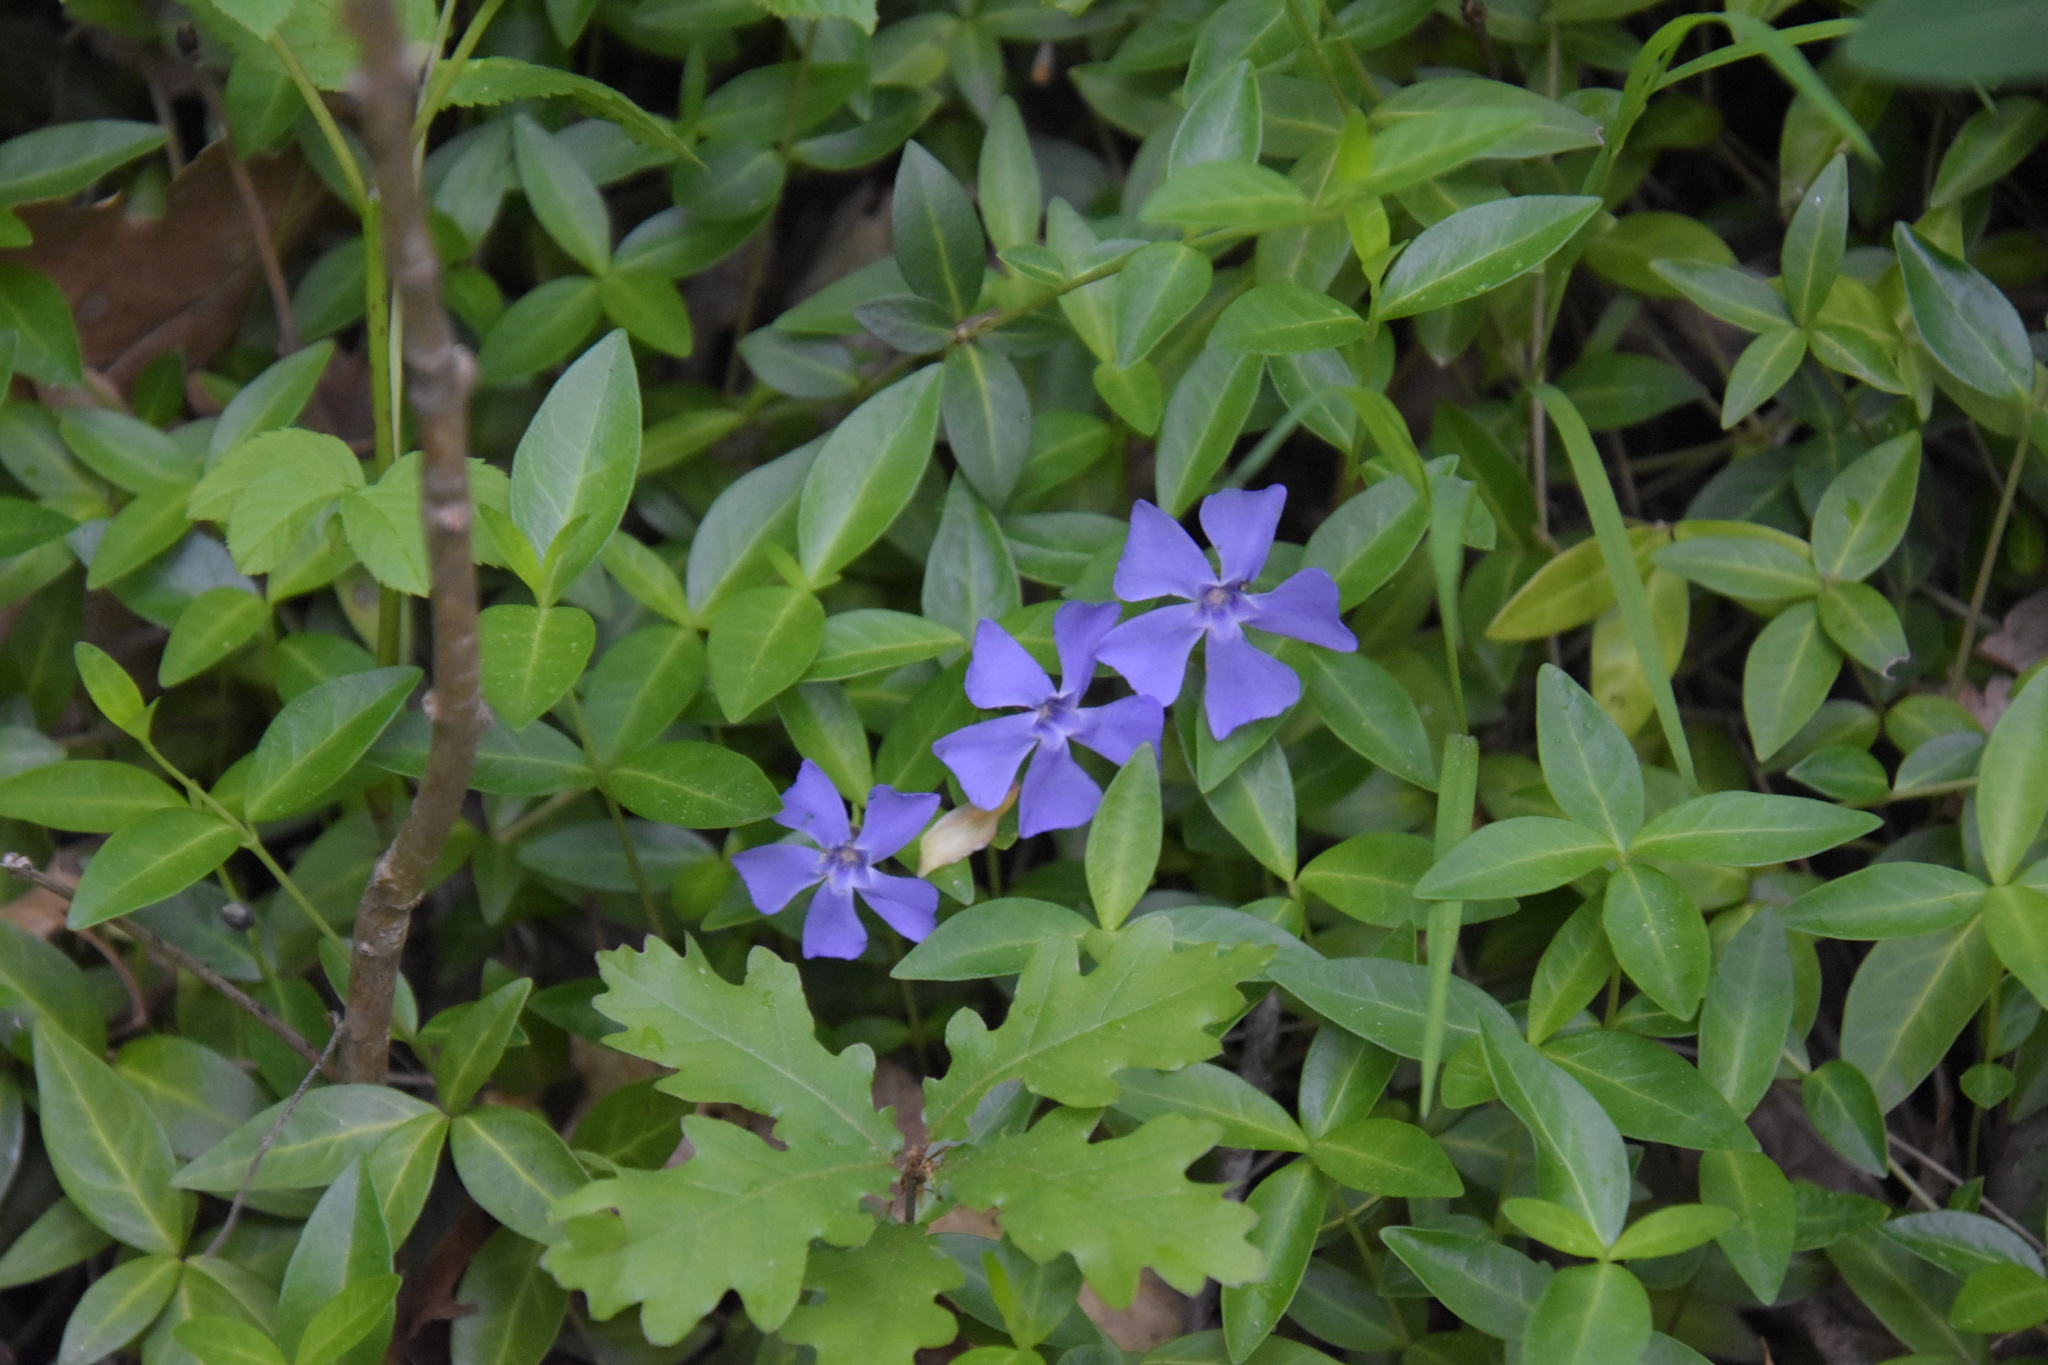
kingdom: Plantae
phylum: Tracheophyta
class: Magnoliopsida
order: Gentianales
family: Apocynaceae
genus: Vinca
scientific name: Vinca minor
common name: Lesser periwinkle
